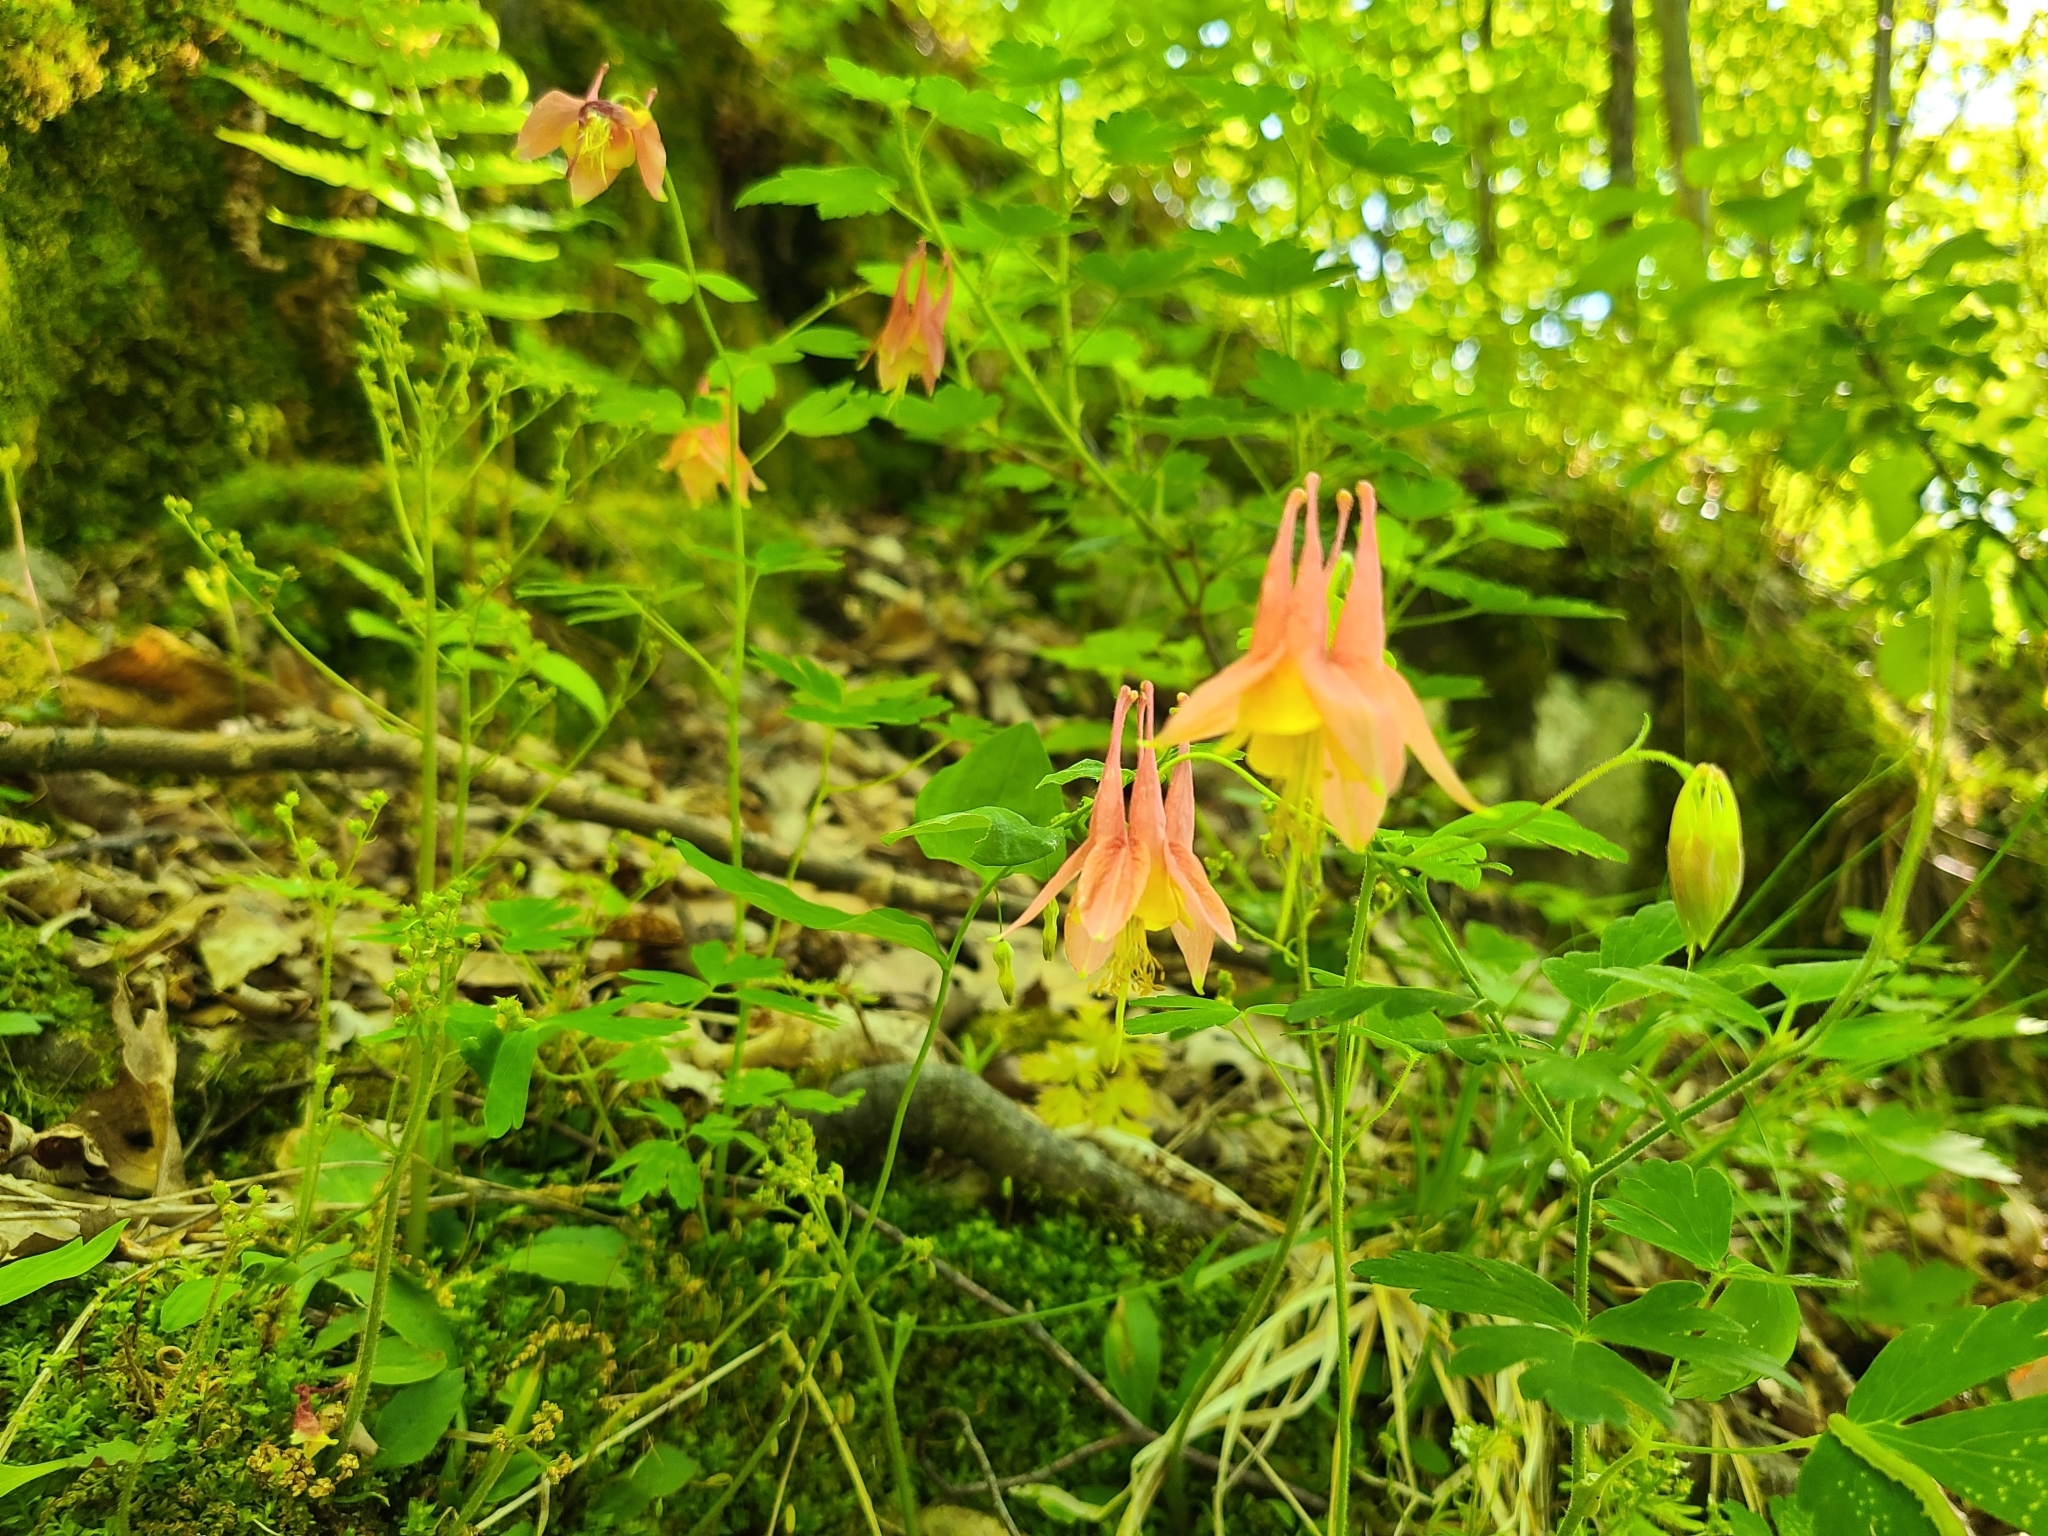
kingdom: Plantae
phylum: Tracheophyta
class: Magnoliopsida
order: Ranunculales
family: Ranunculaceae
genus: Aquilegia
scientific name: Aquilegia canadensis
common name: American columbine
